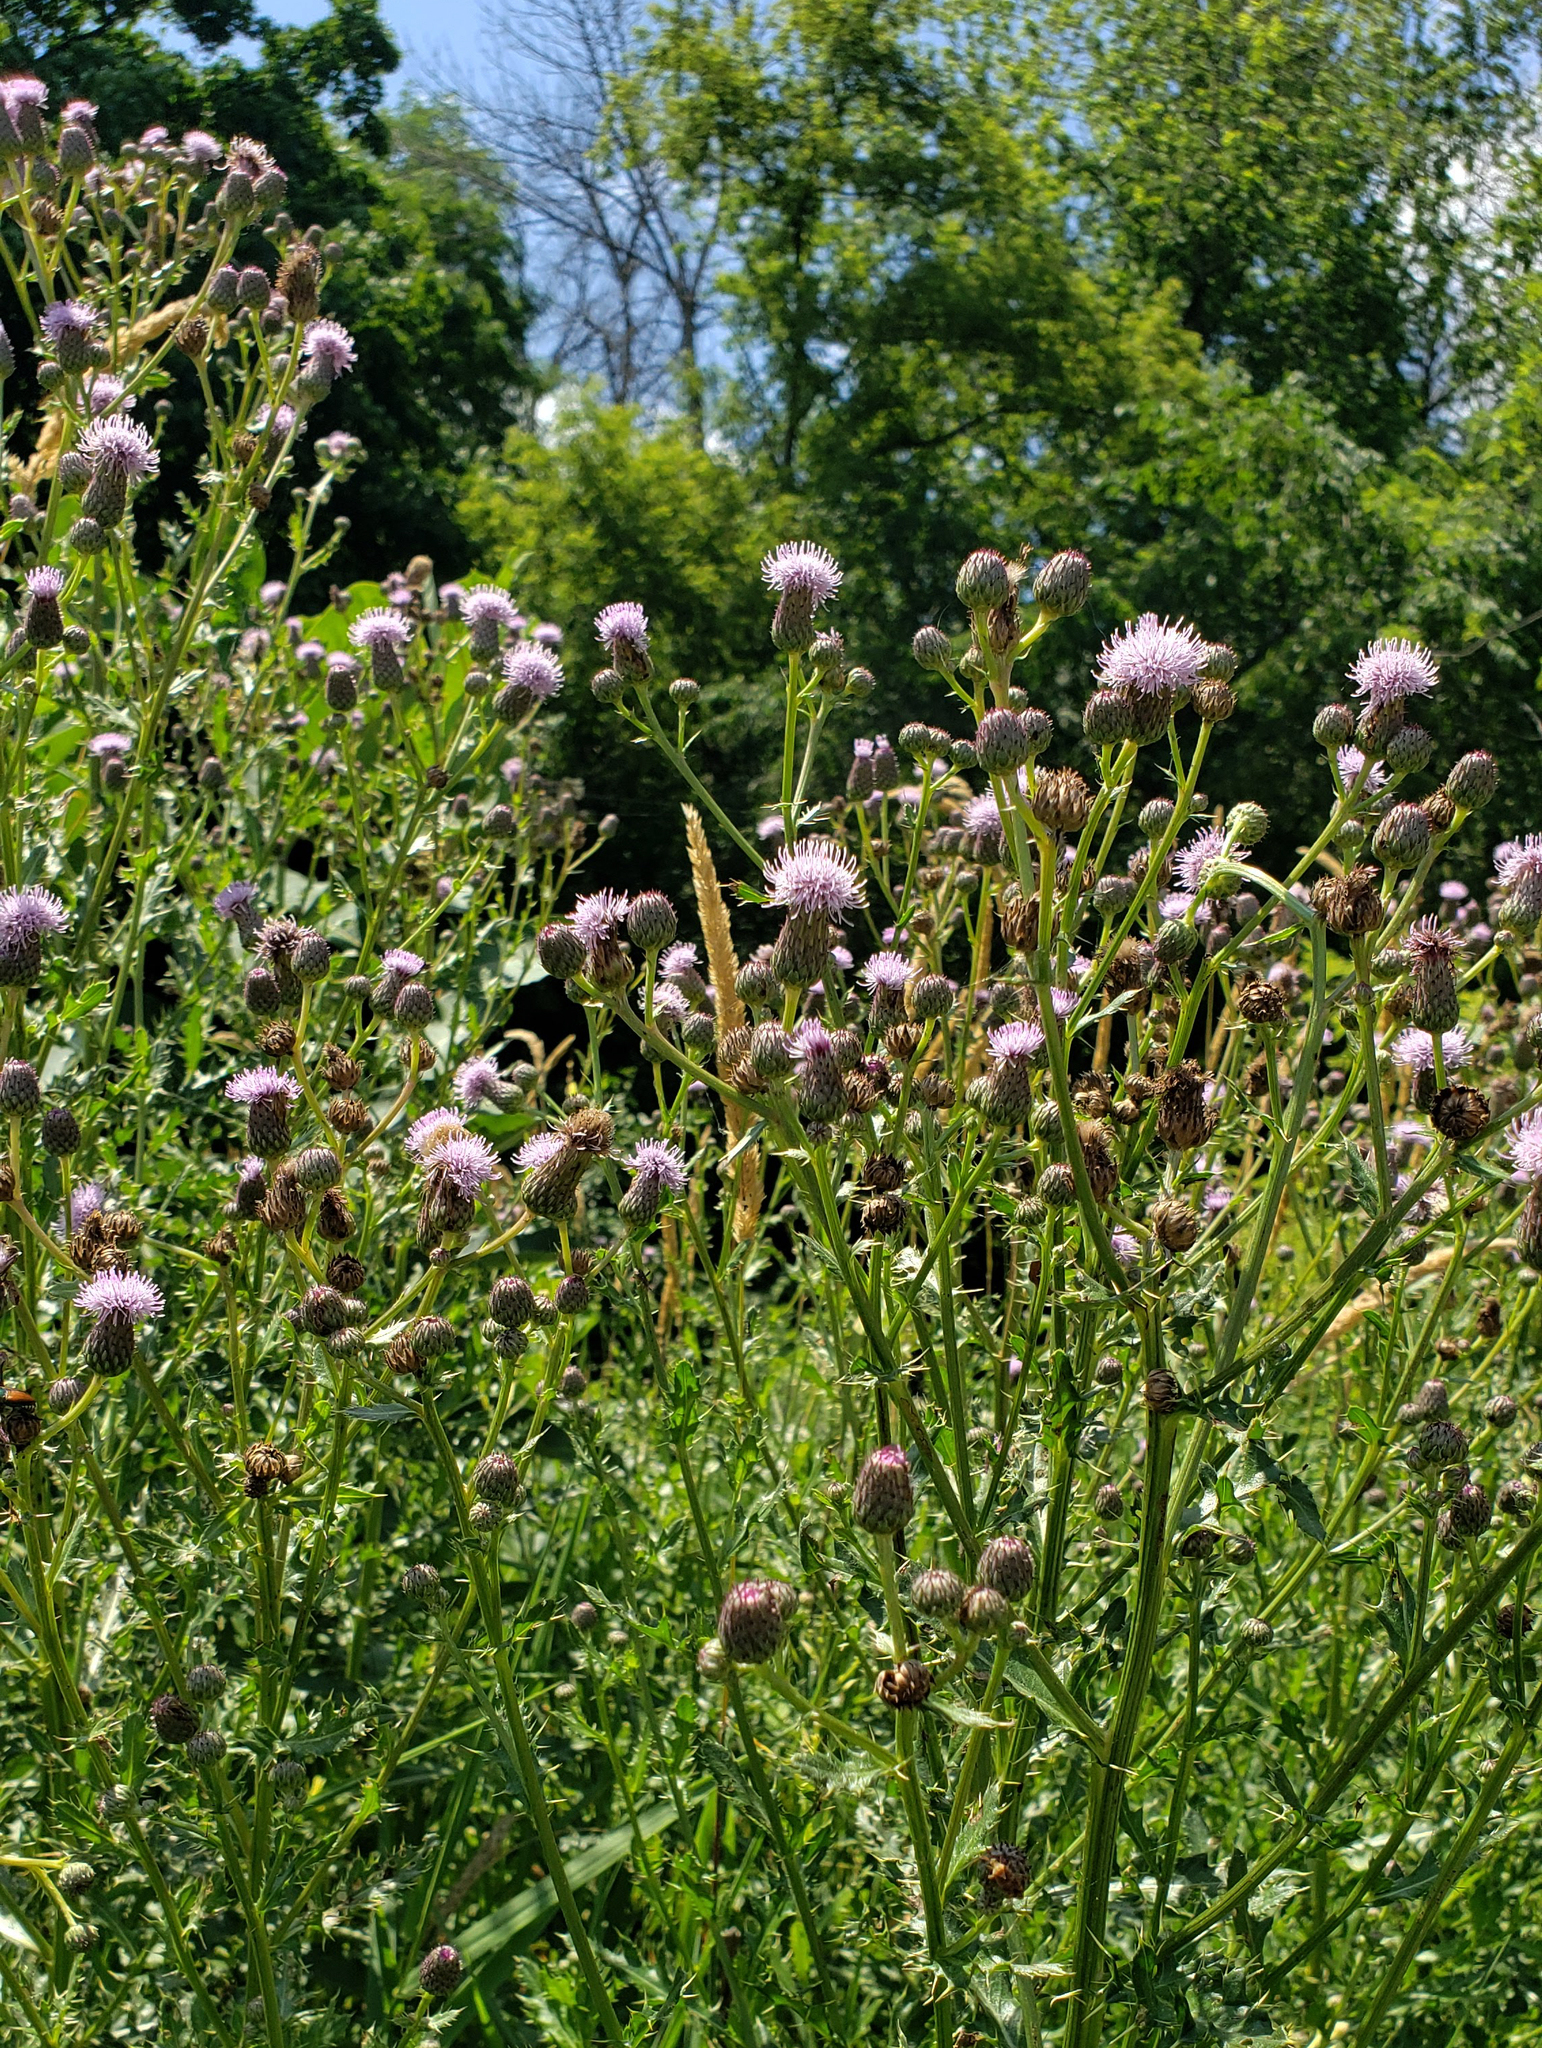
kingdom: Plantae
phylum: Tracheophyta
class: Magnoliopsida
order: Asterales
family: Asteraceae
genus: Cirsium
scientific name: Cirsium arvense
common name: Creeping thistle
